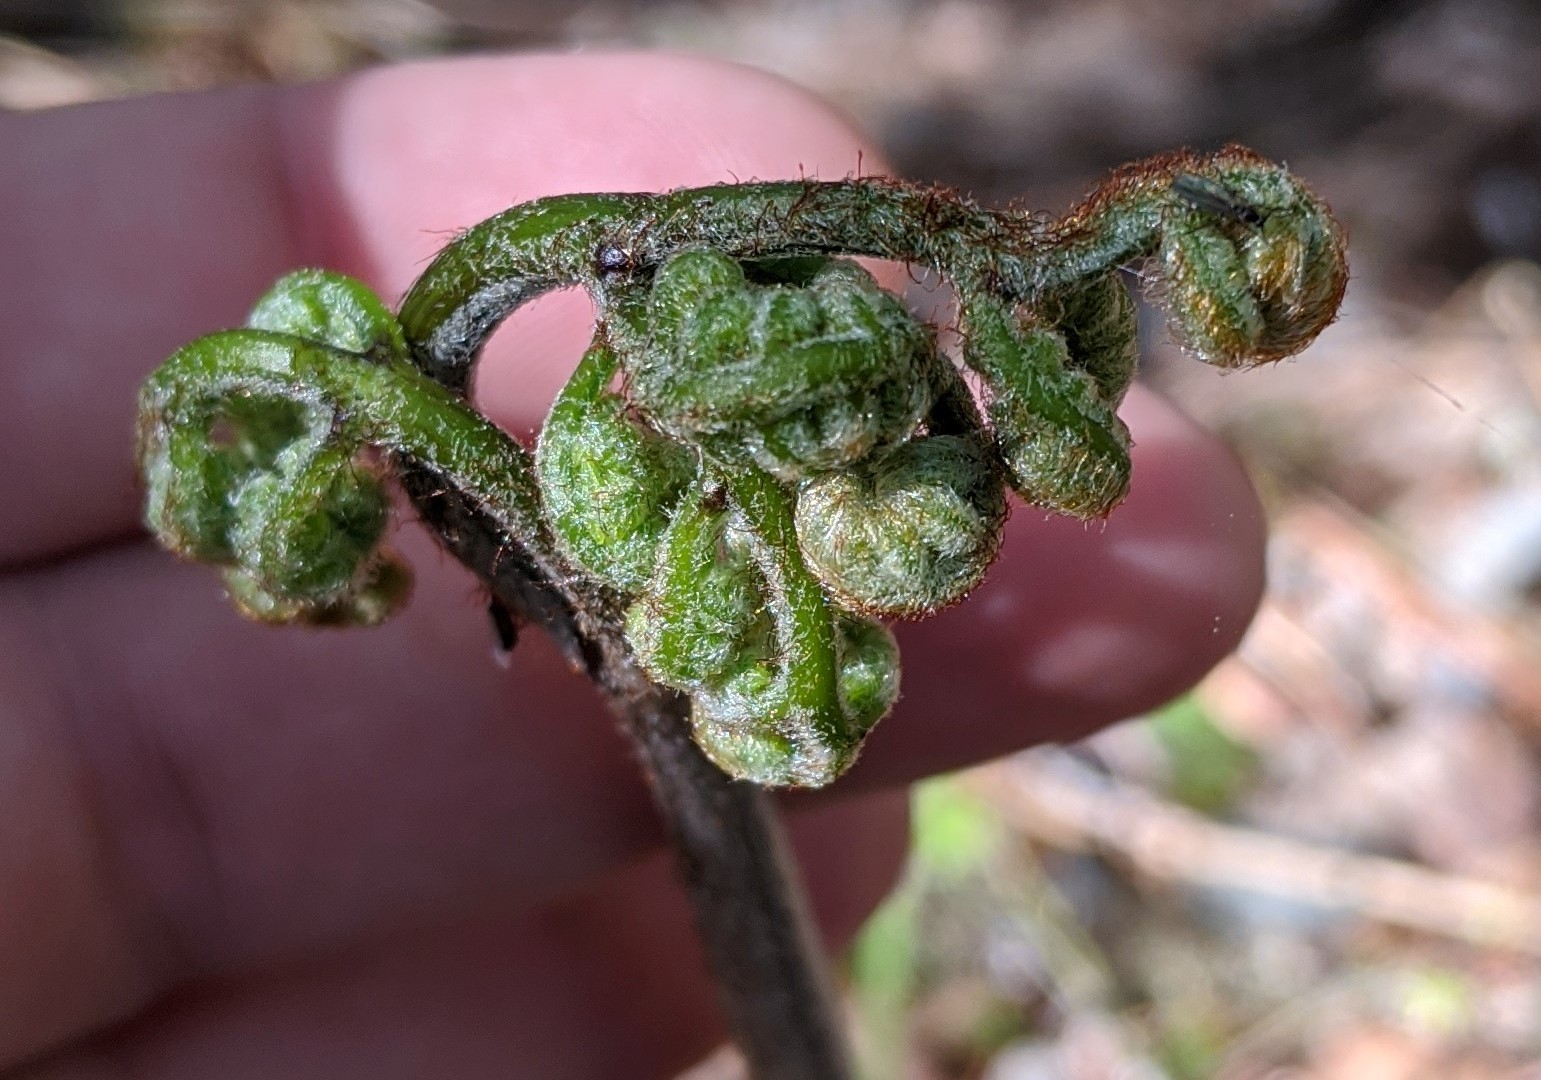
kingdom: Plantae
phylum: Tracheophyta
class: Polypodiopsida
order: Polypodiales
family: Dennstaedtiaceae
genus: Pteridium
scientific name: Pteridium aquilinum
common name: Bracken
